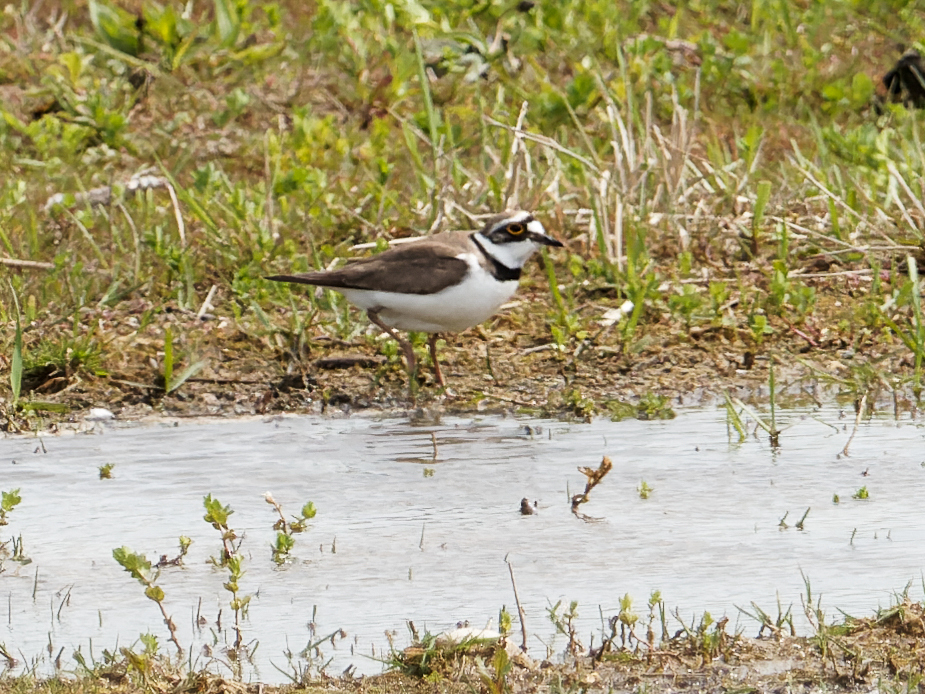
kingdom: Animalia
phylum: Chordata
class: Aves
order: Charadriiformes
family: Charadriidae
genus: Charadrius
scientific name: Charadrius dubius
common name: Little ringed plover
